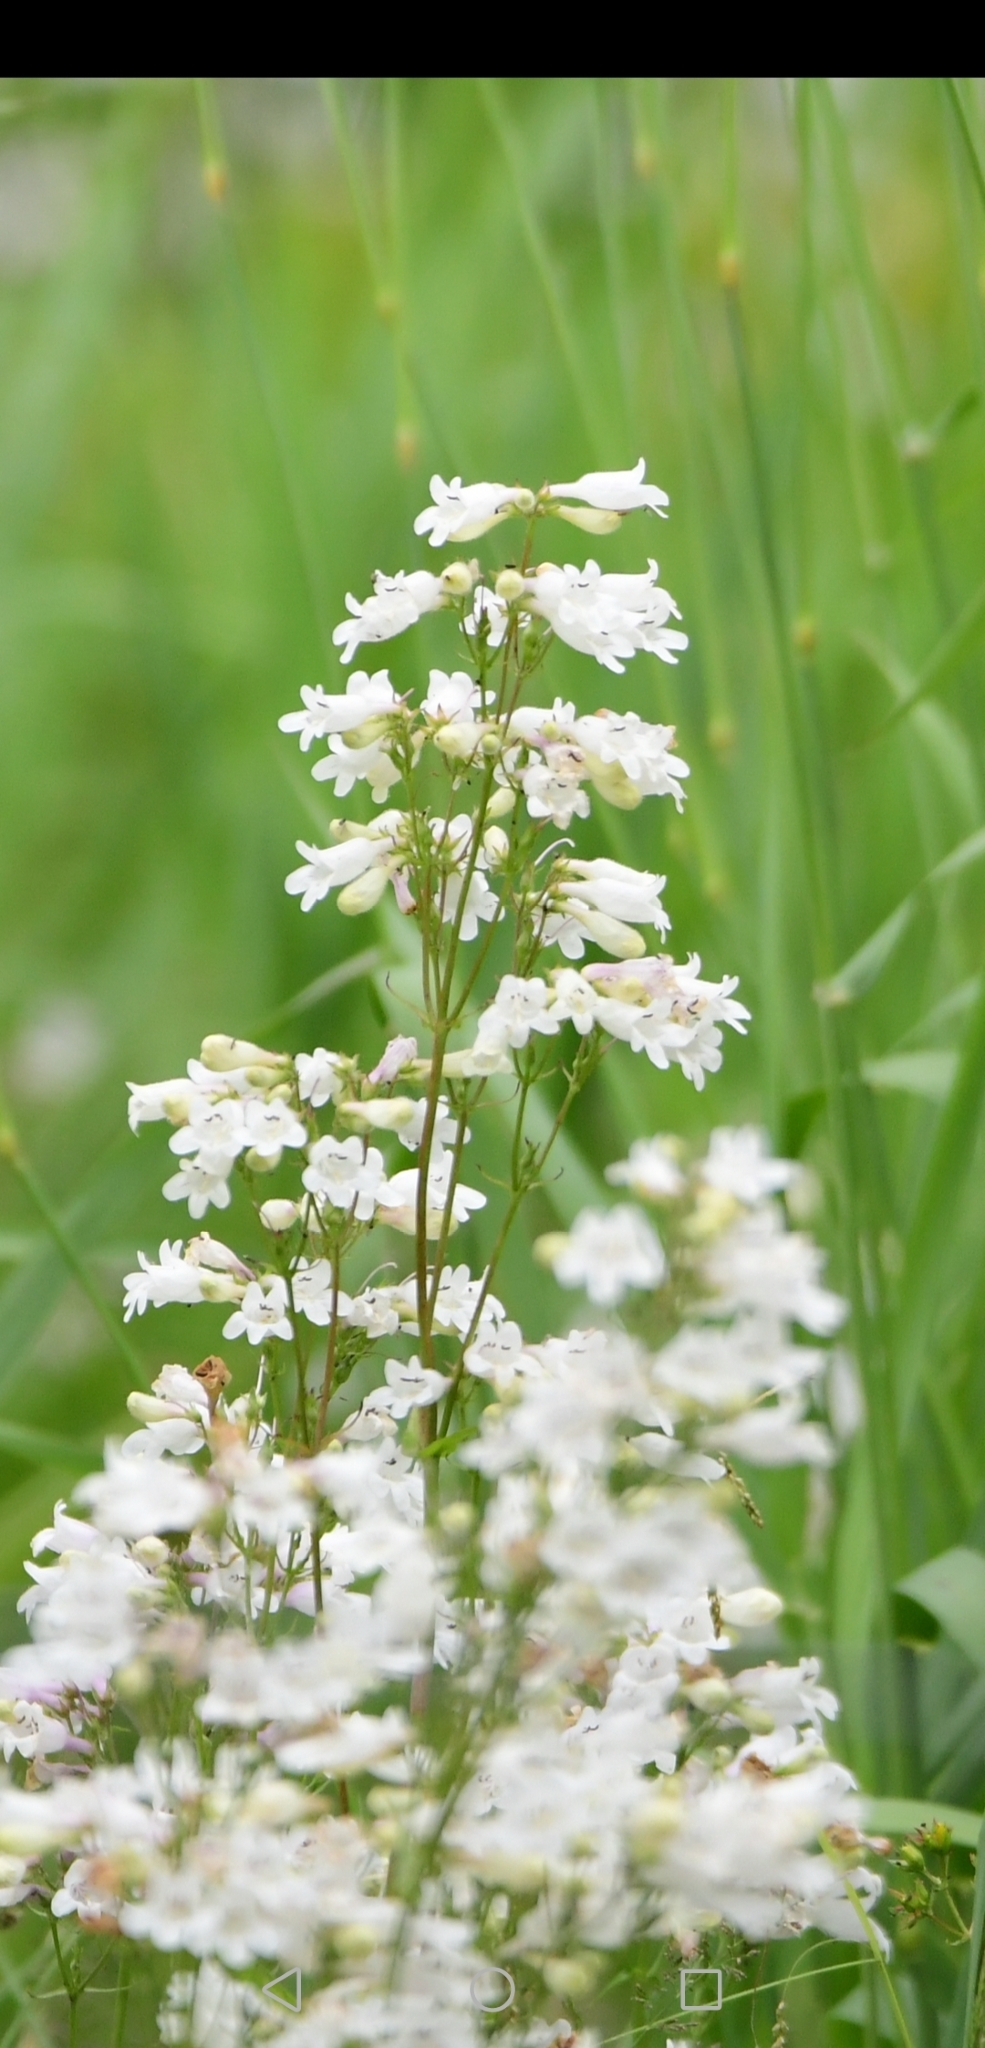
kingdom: Plantae
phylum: Tracheophyta
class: Magnoliopsida
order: Lamiales
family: Plantaginaceae
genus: Penstemon
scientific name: Penstemon digitalis
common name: Foxglove beardtongue
